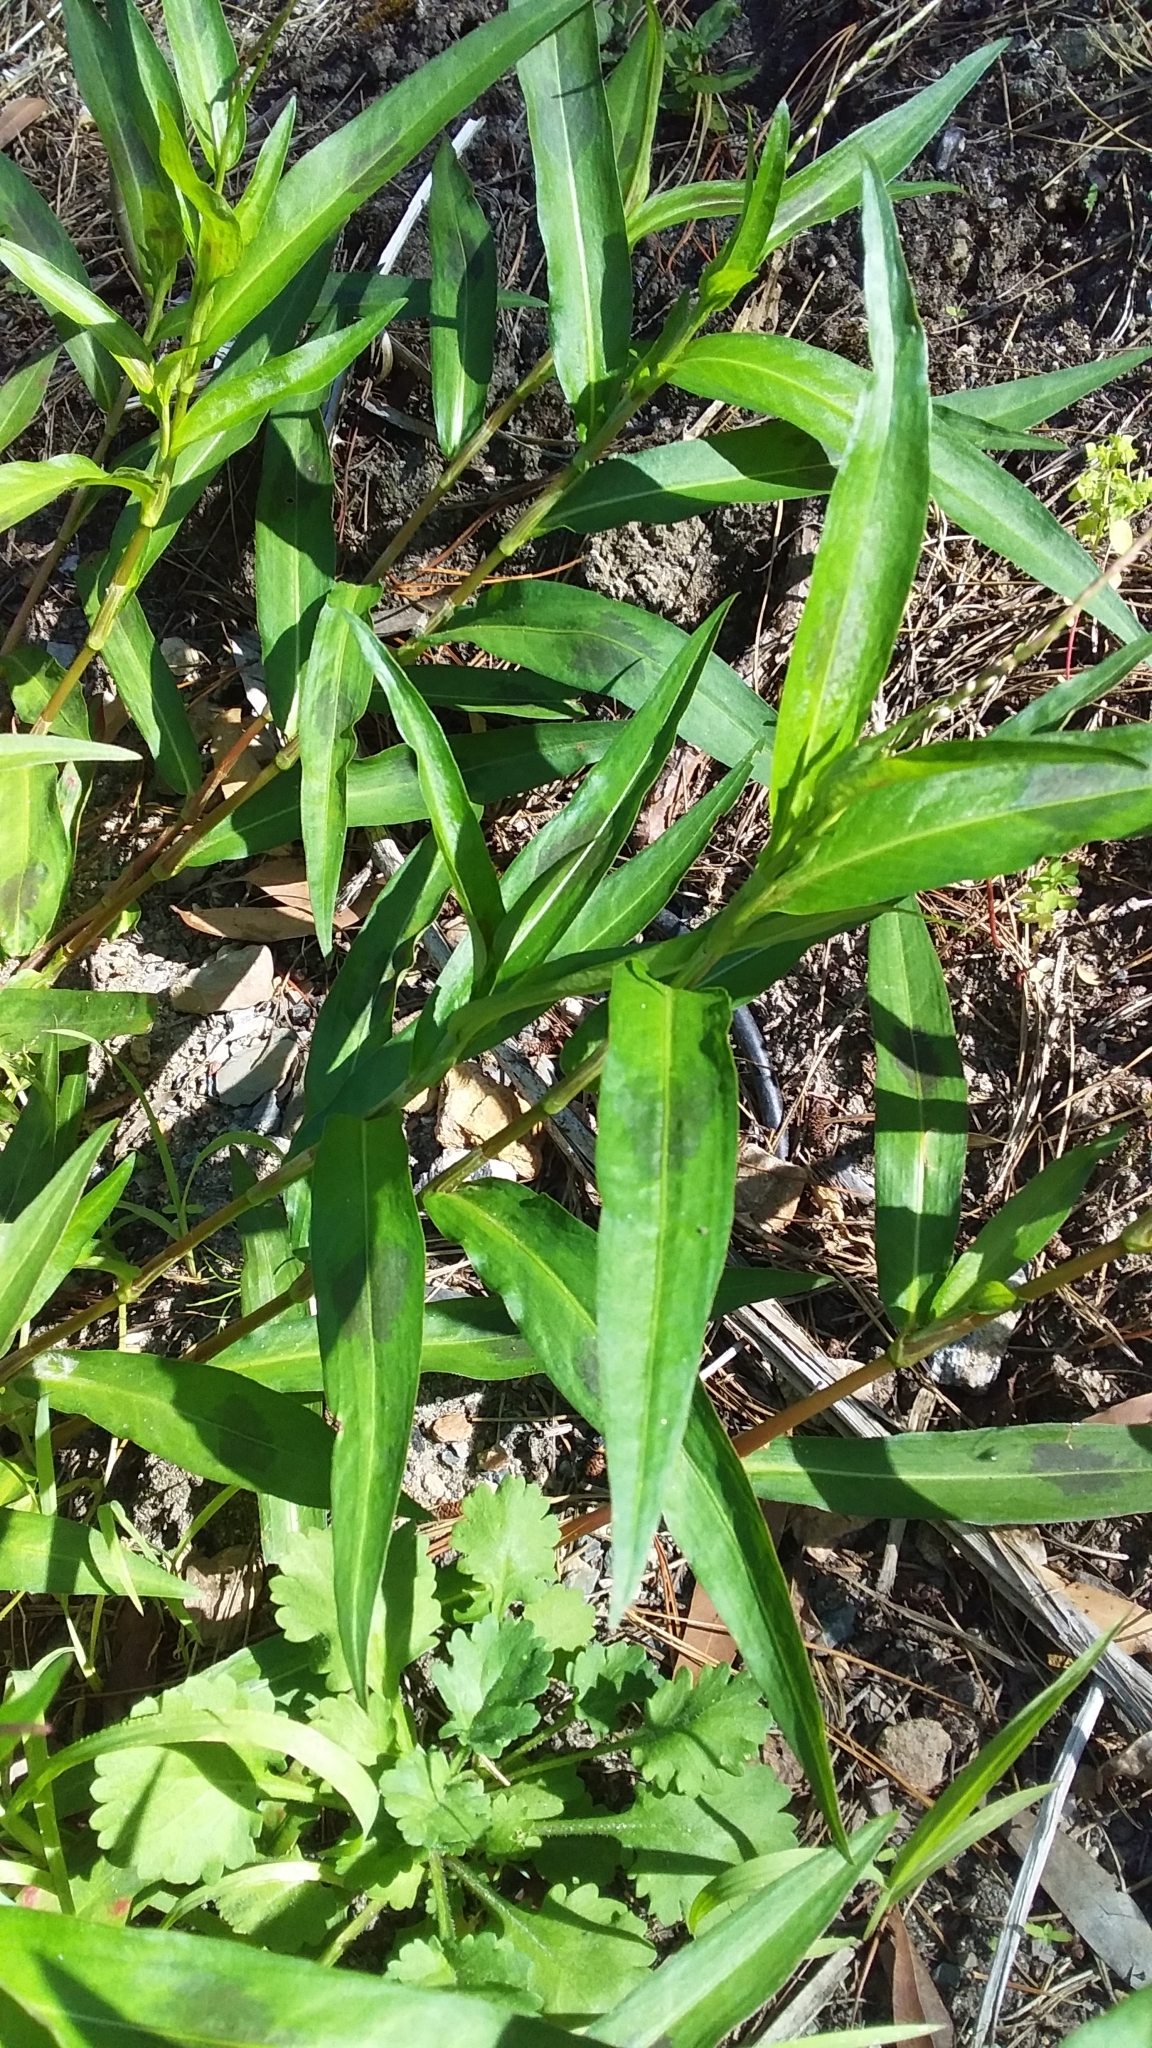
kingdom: Plantae
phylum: Tracheophyta
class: Magnoliopsida
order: Caryophyllales
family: Polygonaceae
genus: Persicaria
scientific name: Persicaria decipiens
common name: Willow-weed
